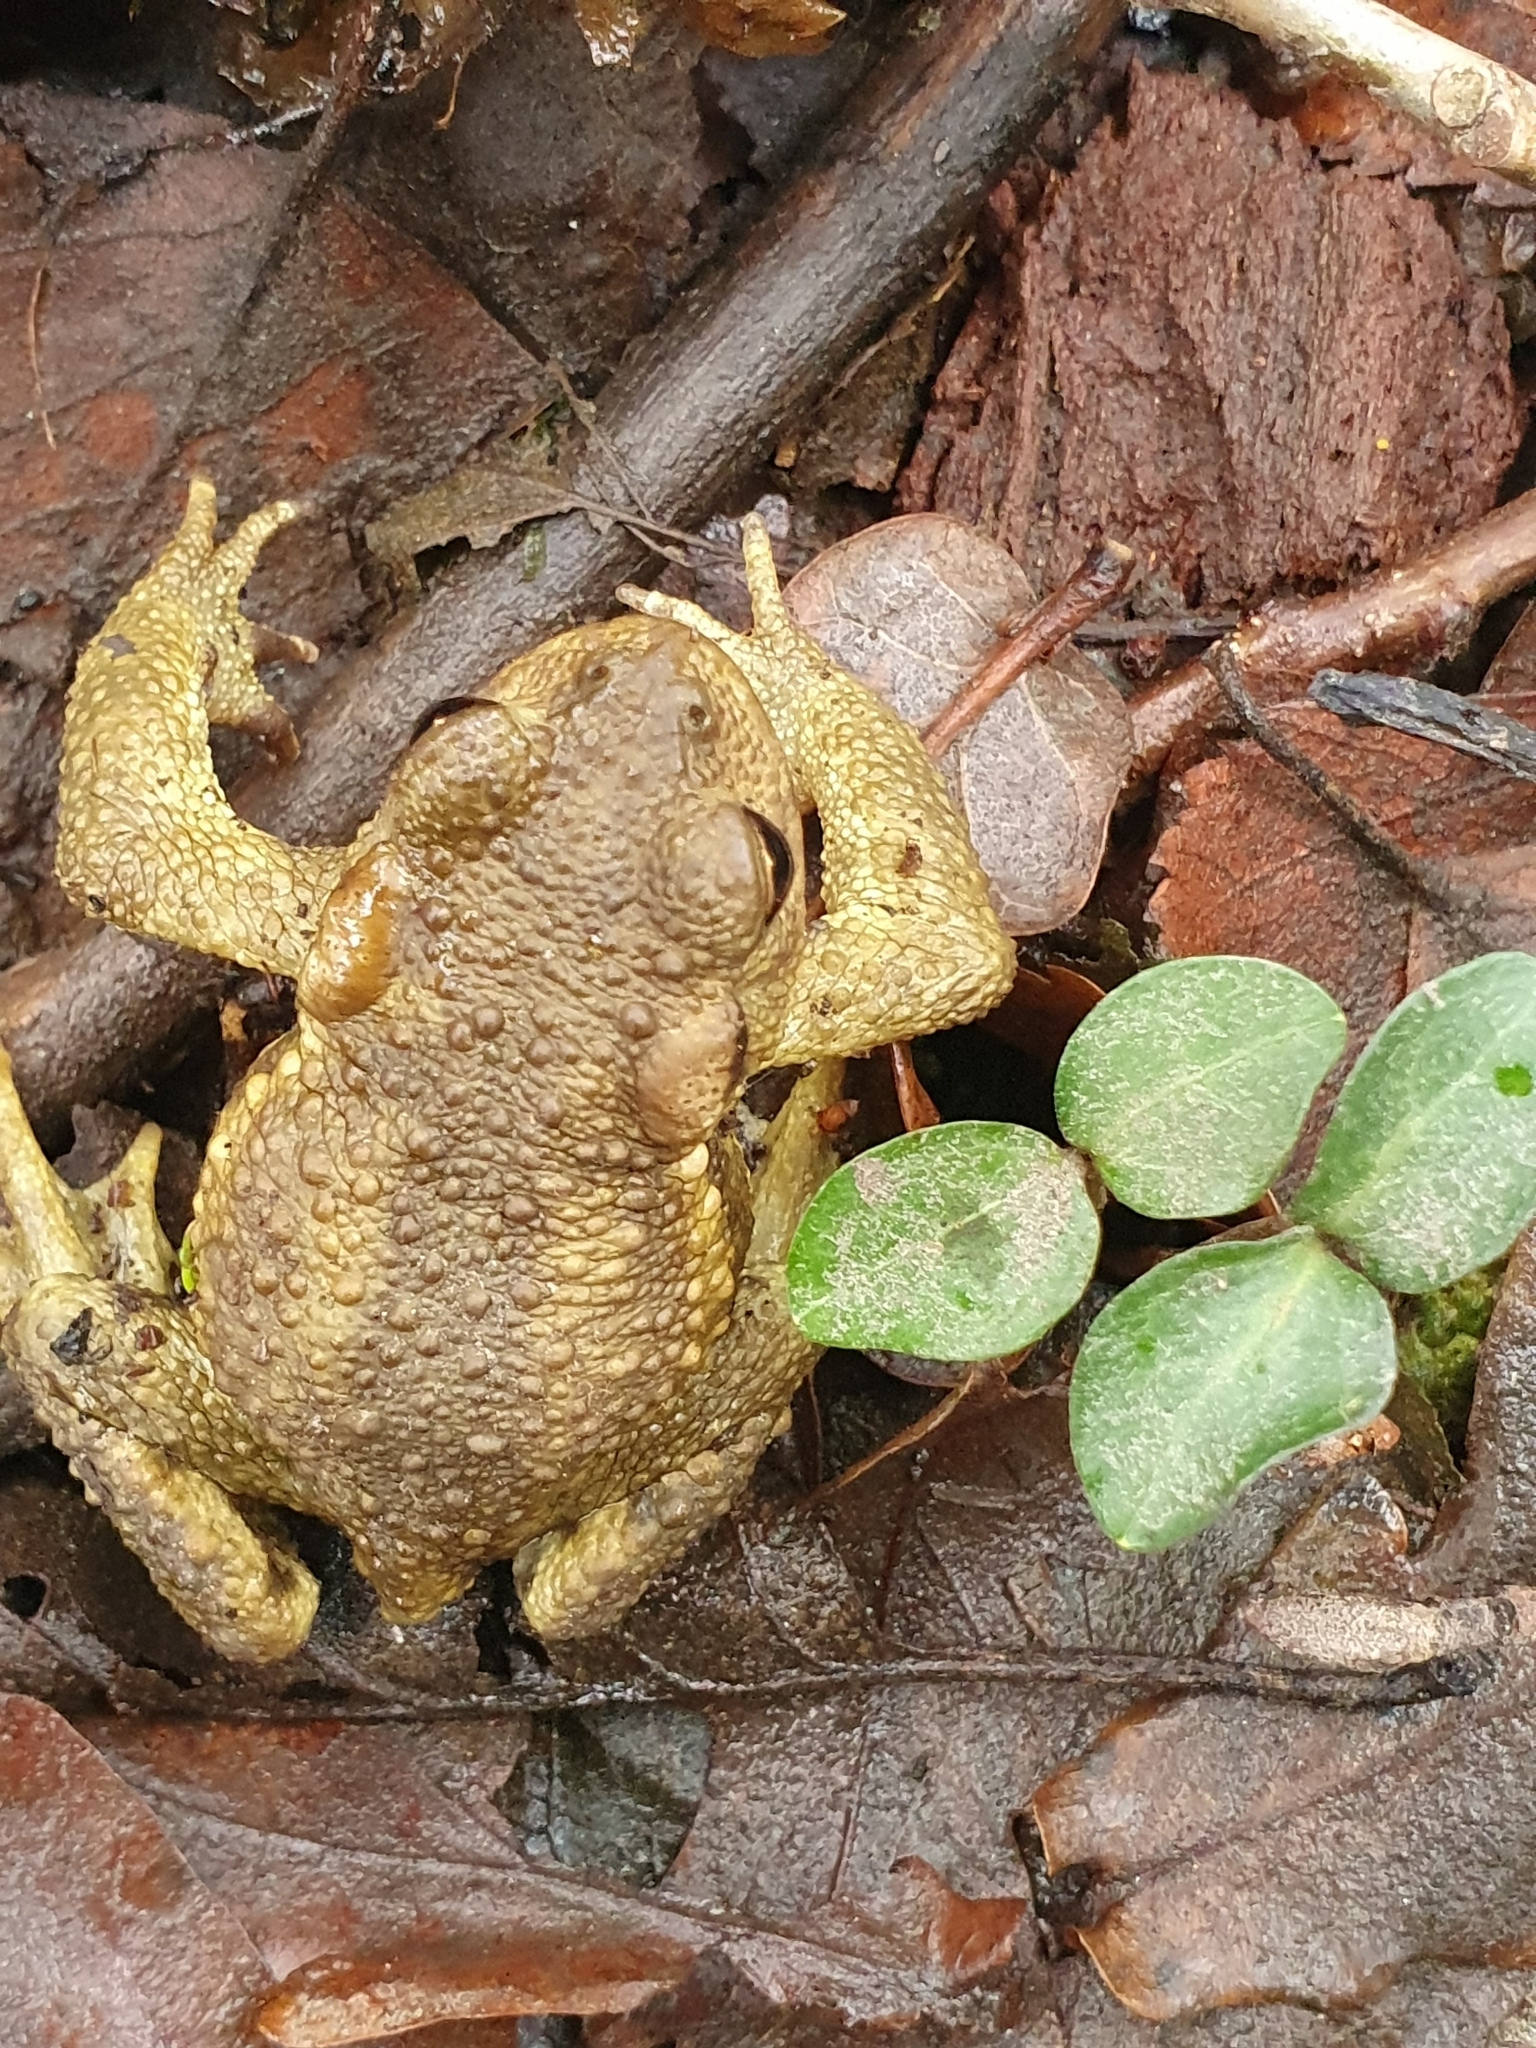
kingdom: Animalia
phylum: Chordata
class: Amphibia
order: Anura
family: Bufonidae
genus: Bufo
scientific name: Bufo spinosus
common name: Western common toad
